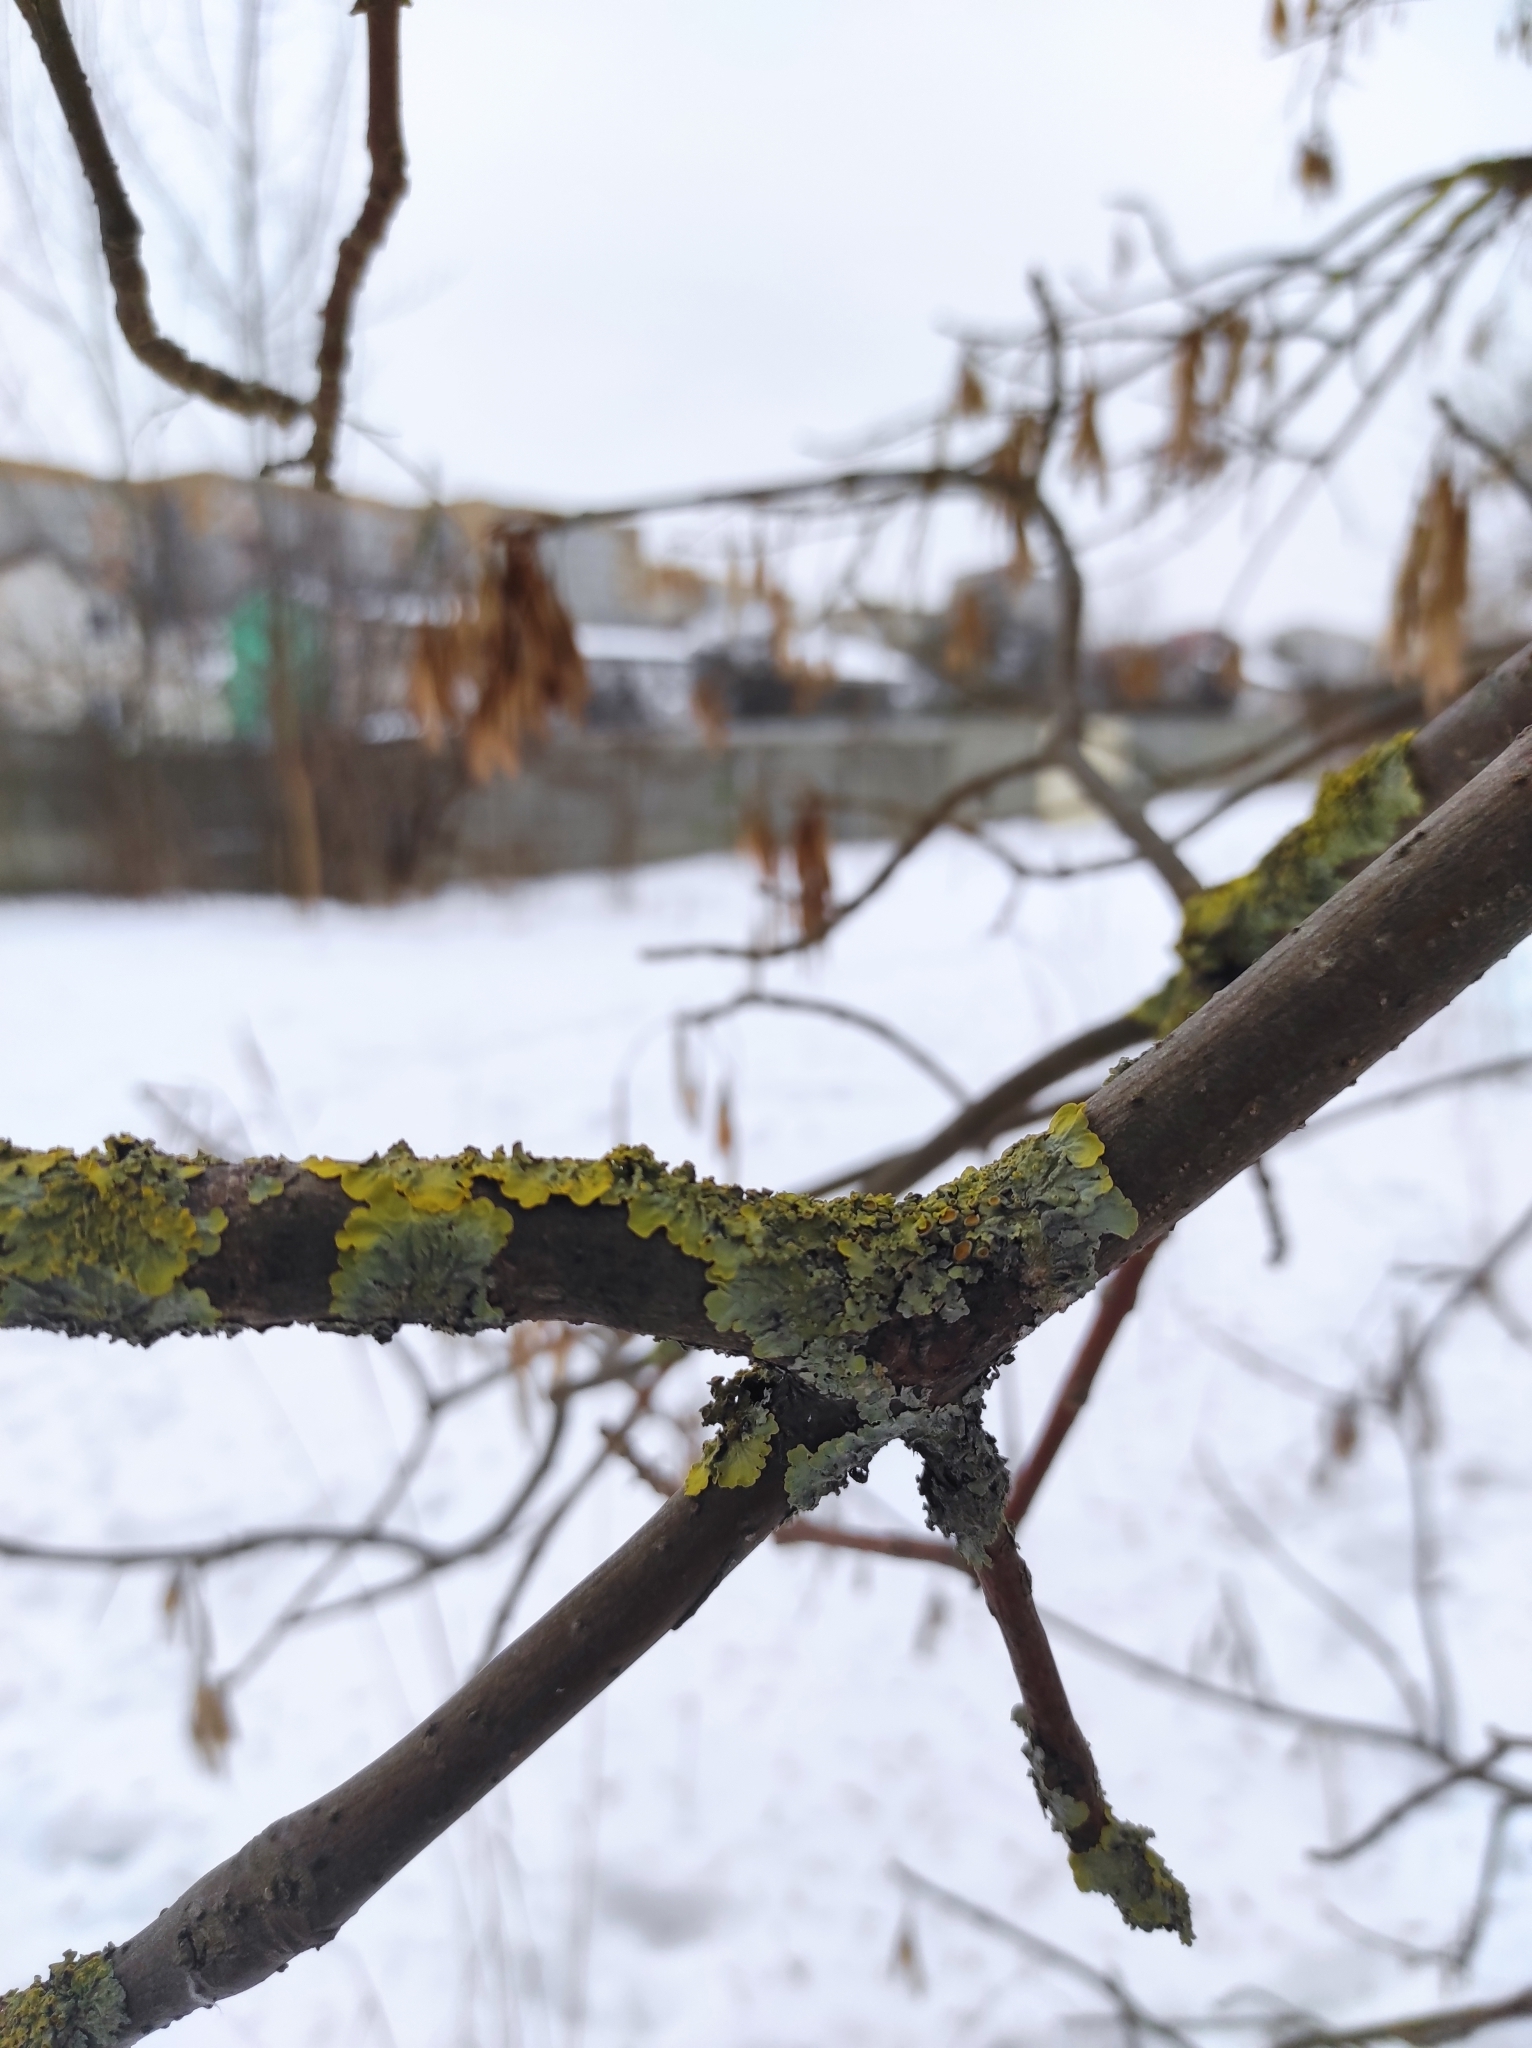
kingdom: Fungi
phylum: Ascomycota
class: Lecanoromycetes
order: Teloschistales
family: Teloschistaceae
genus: Xanthoria
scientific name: Xanthoria parietina
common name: Common orange lichen
